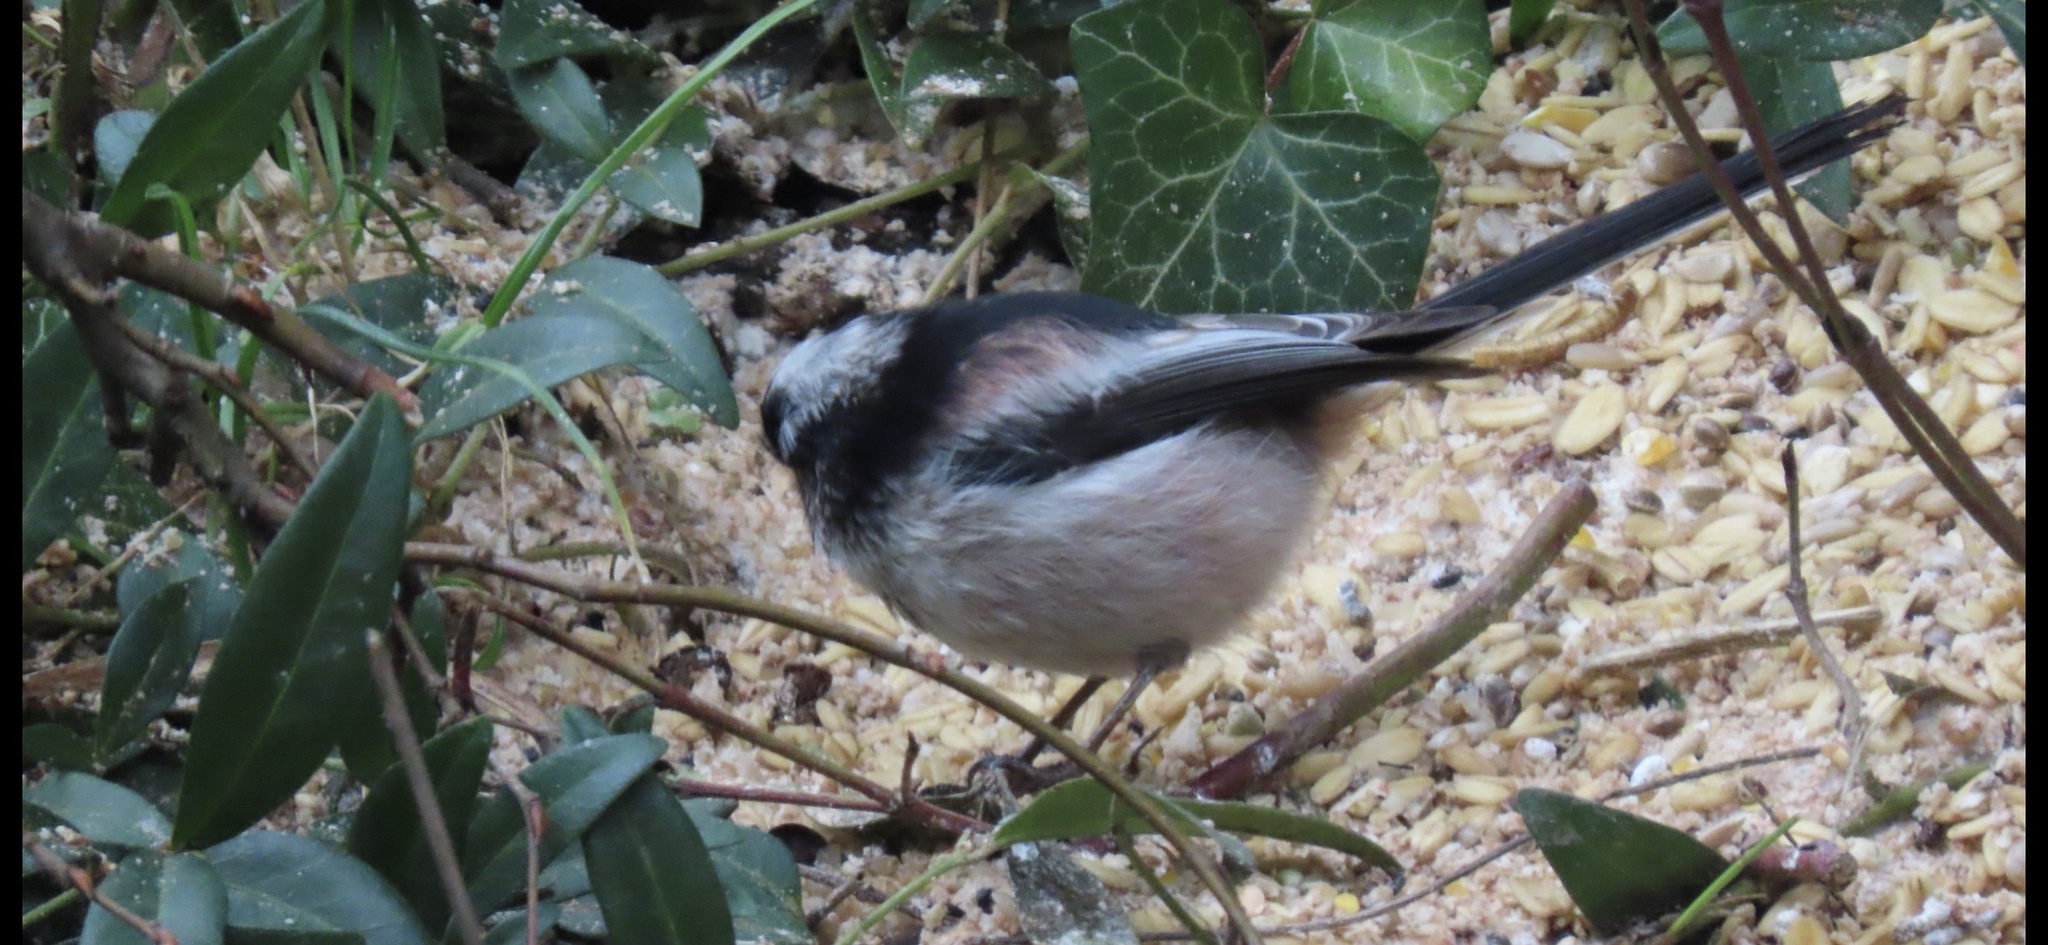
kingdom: Animalia
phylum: Chordata
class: Aves
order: Passeriformes
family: Aegithalidae
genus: Aegithalos
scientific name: Aegithalos caudatus
